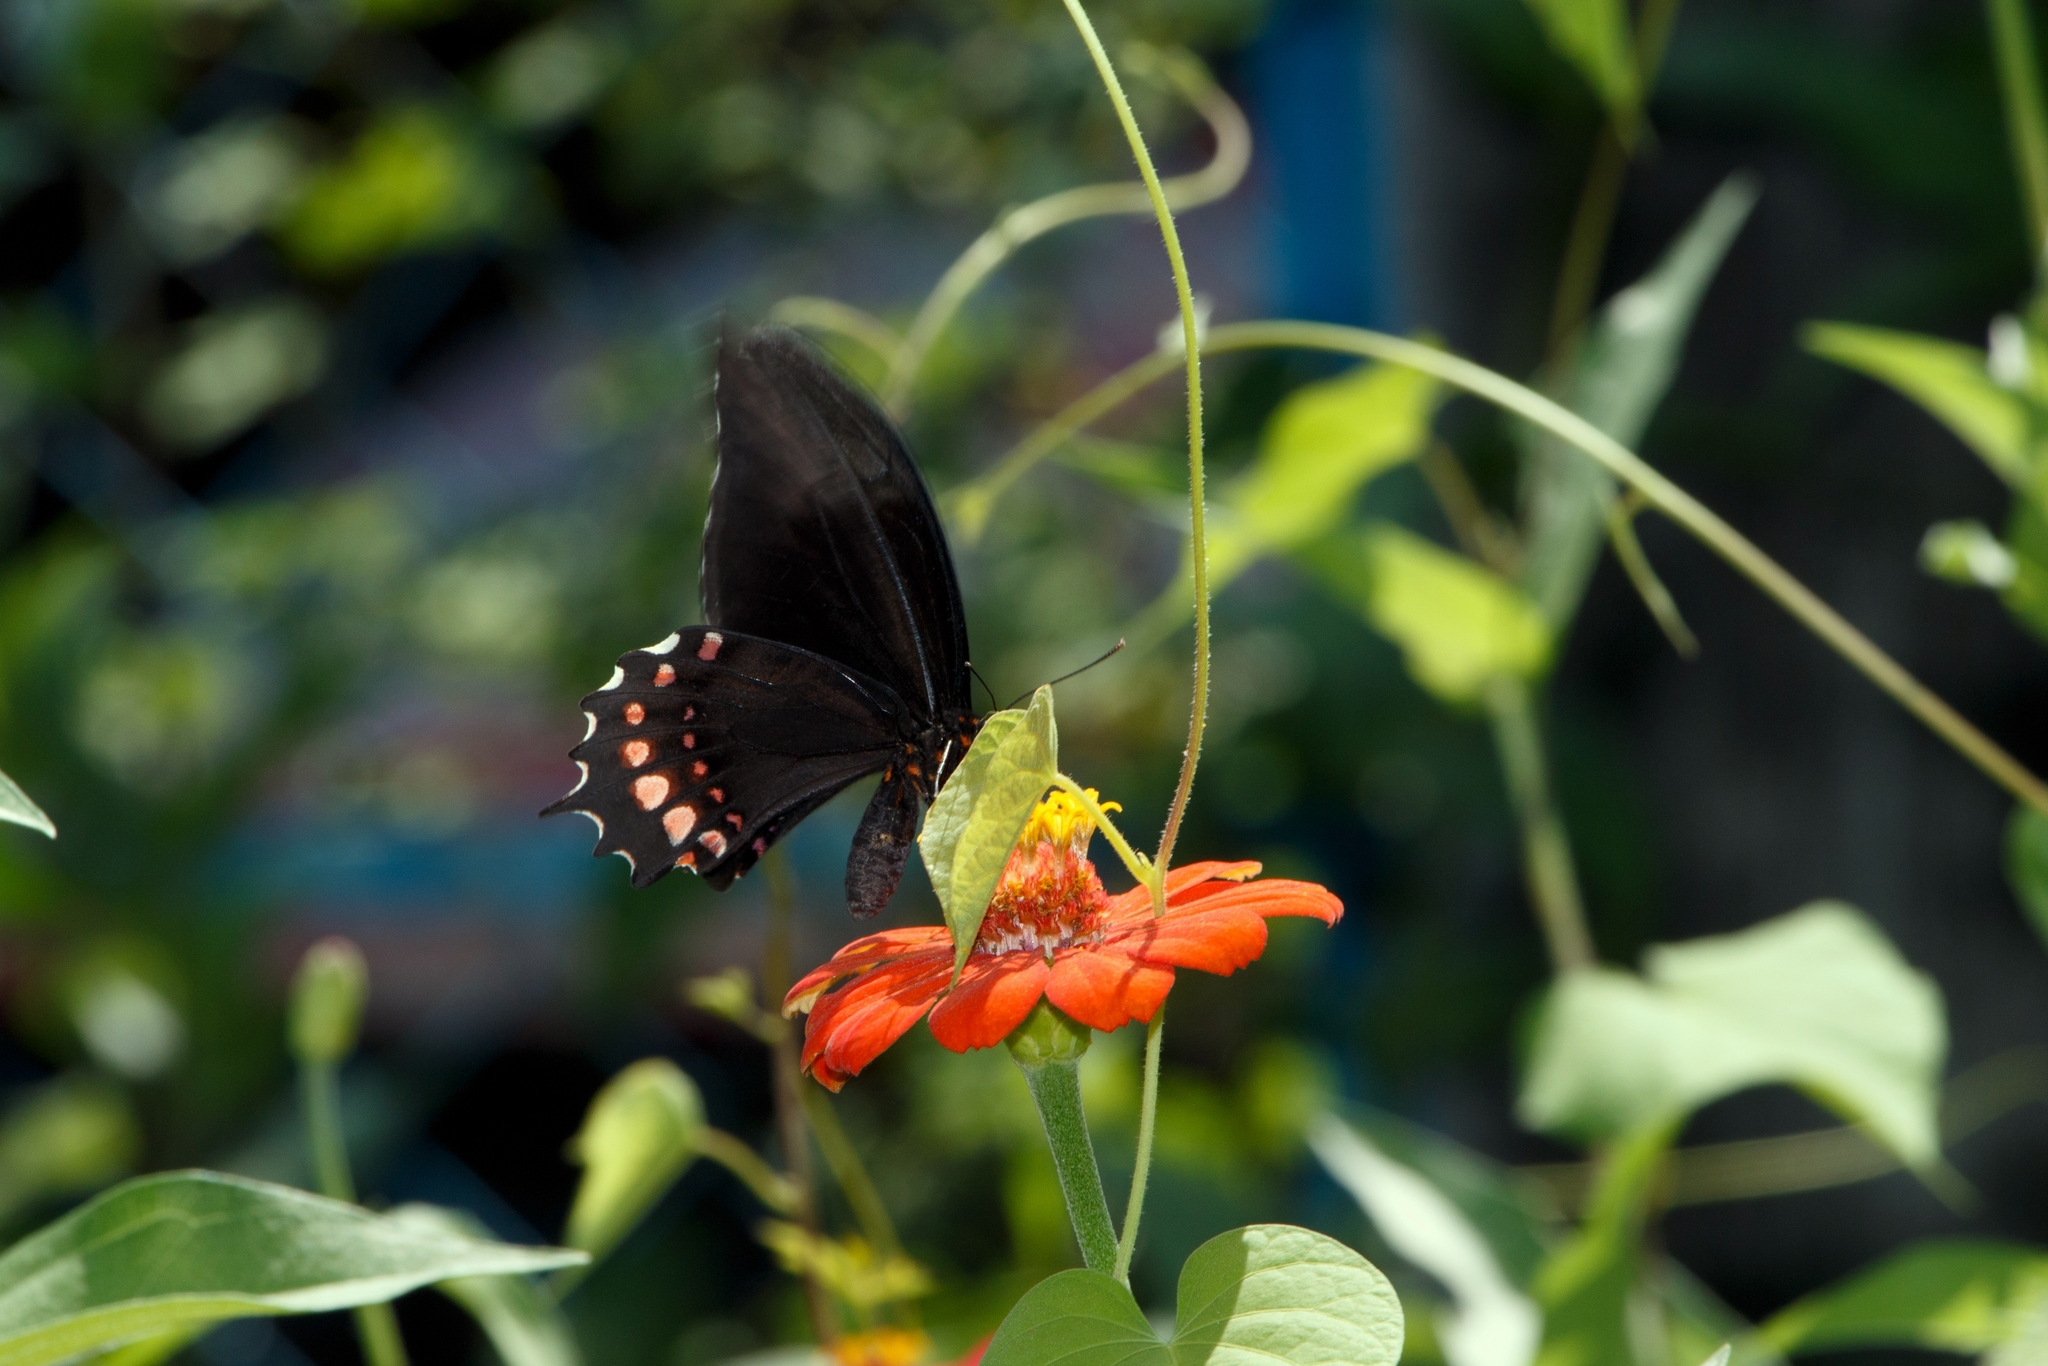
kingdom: Animalia
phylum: Arthropoda
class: Insecta
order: Lepidoptera
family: Papilionidae
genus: Heraclides
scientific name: Heraclides rogeri
